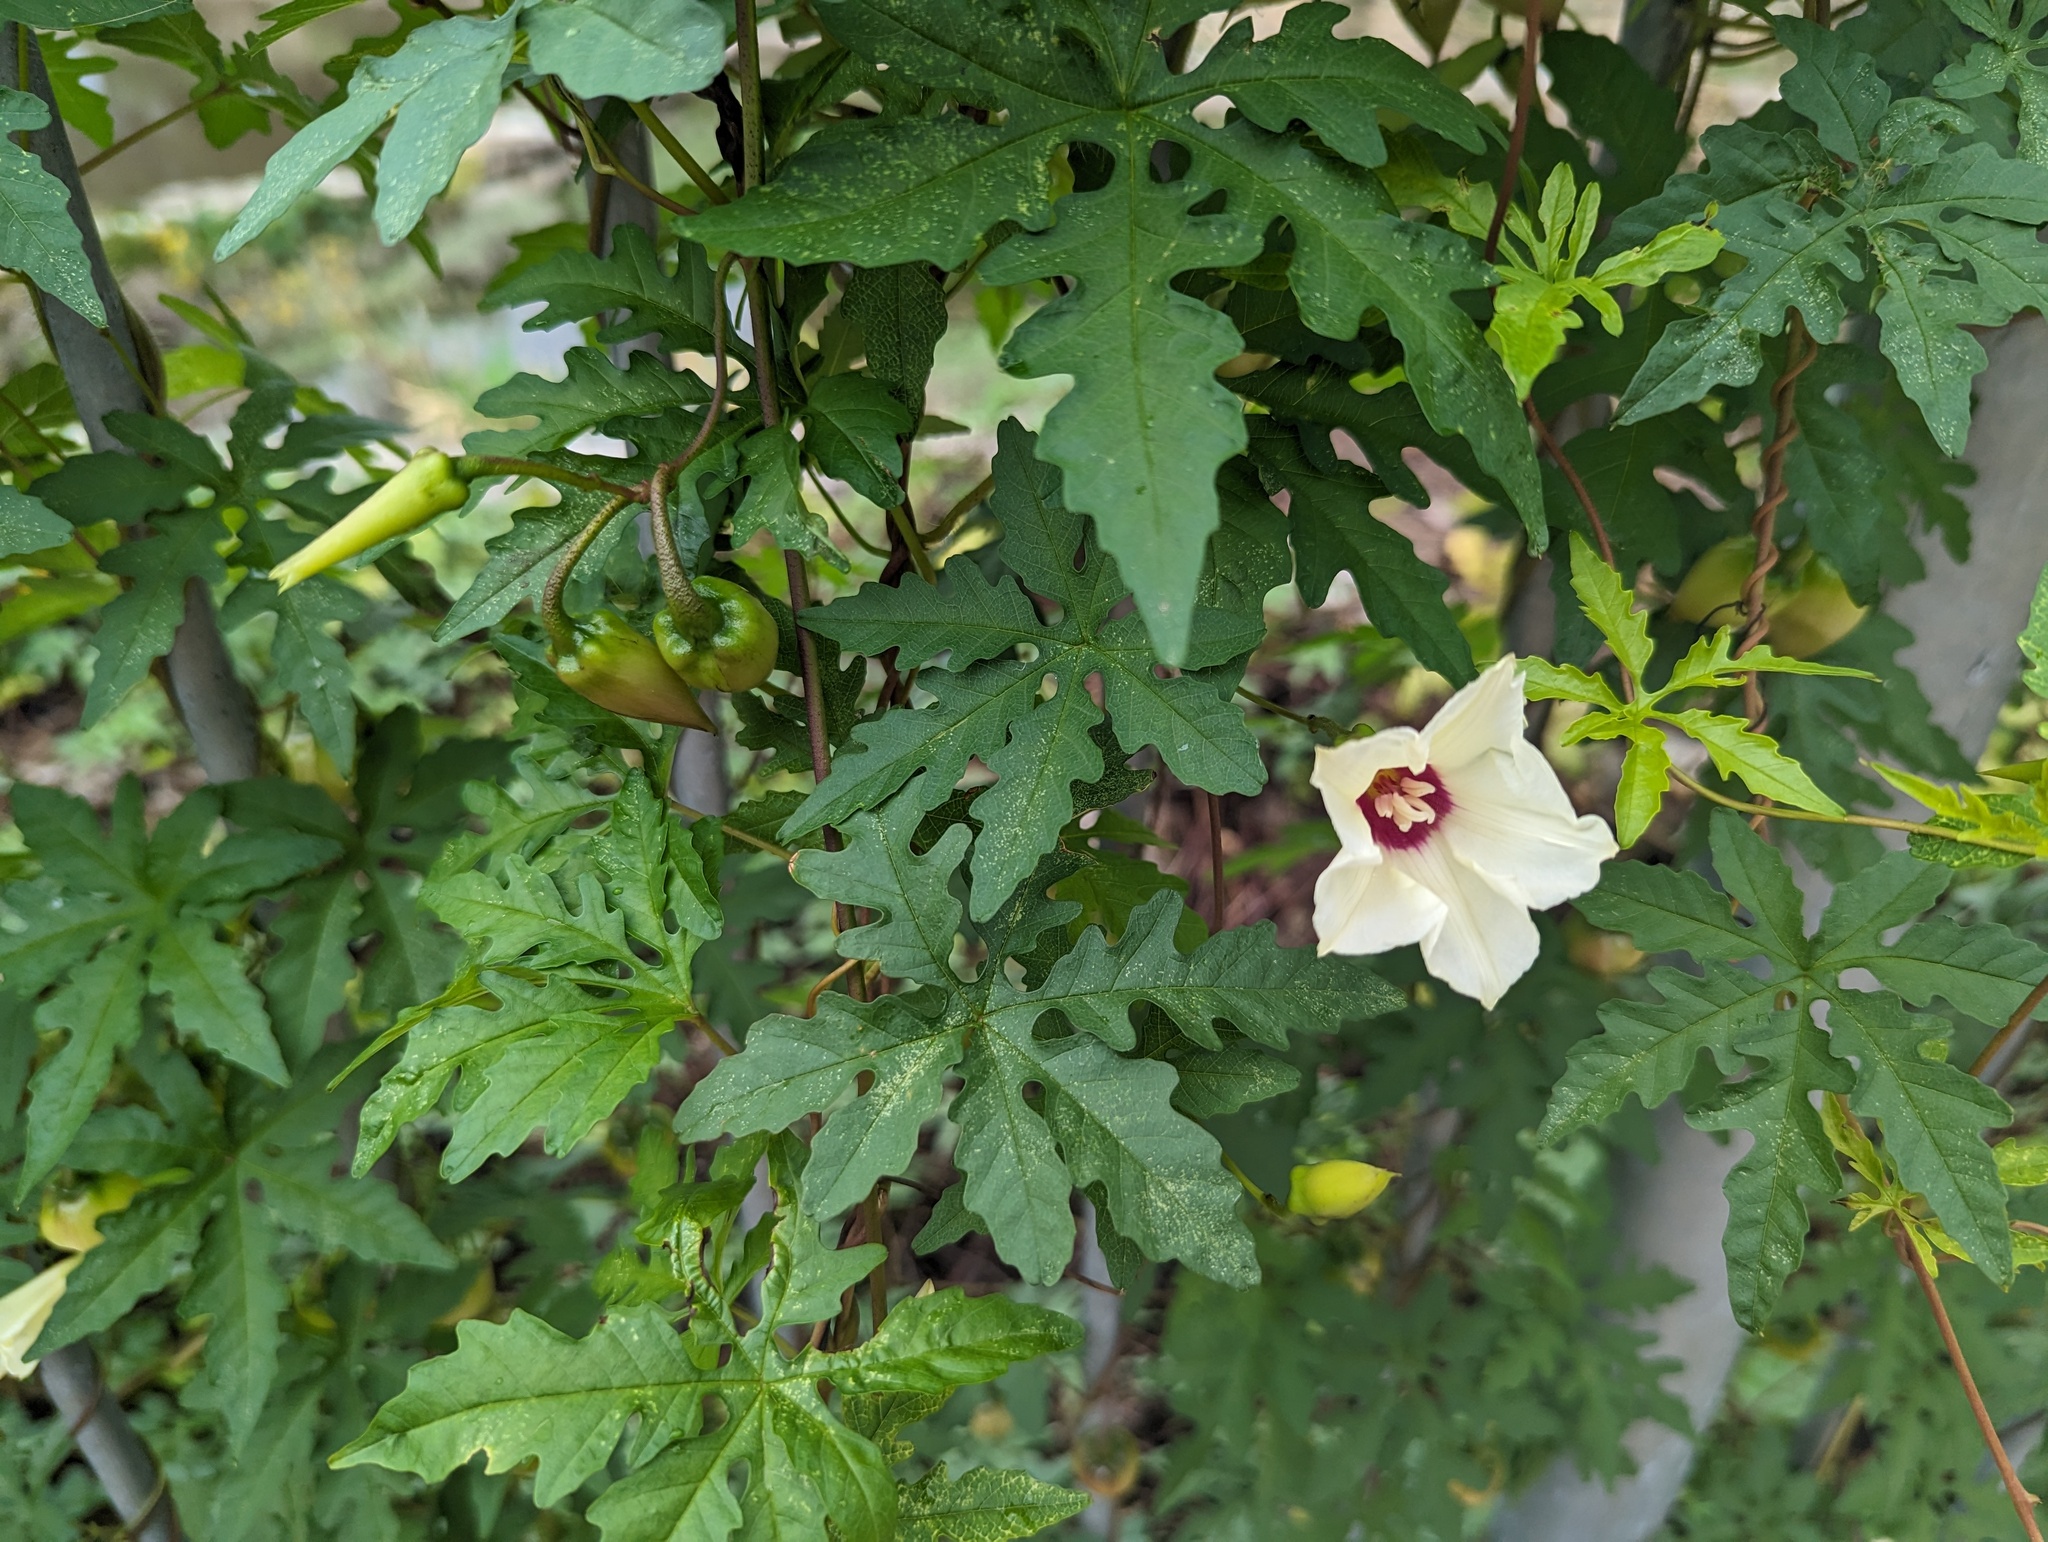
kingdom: Plantae
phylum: Tracheophyta
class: Magnoliopsida
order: Solanales
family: Convolvulaceae
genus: Distimake
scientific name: Distimake dissectus
